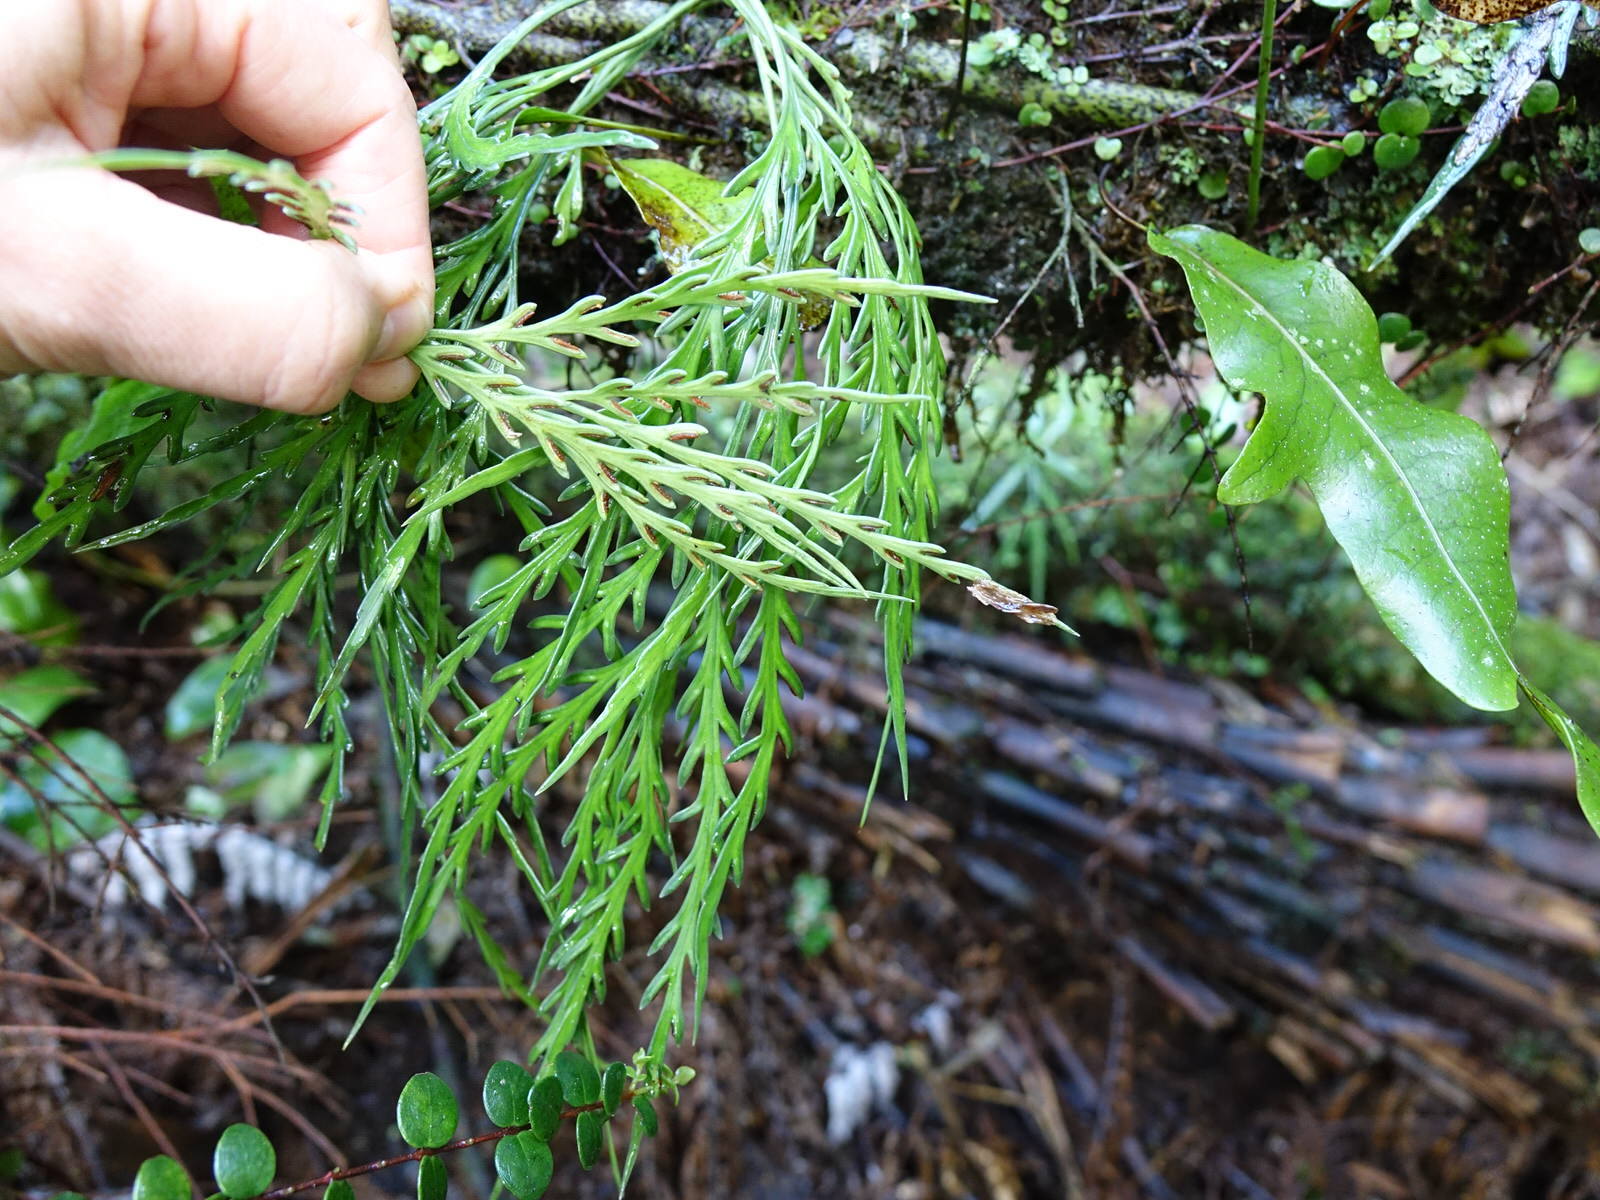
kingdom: Plantae
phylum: Tracheophyta
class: Polypodiopsida
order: Polypodiales
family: Aspleniaceae
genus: Asplenium
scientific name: Asplenium flaccidum
